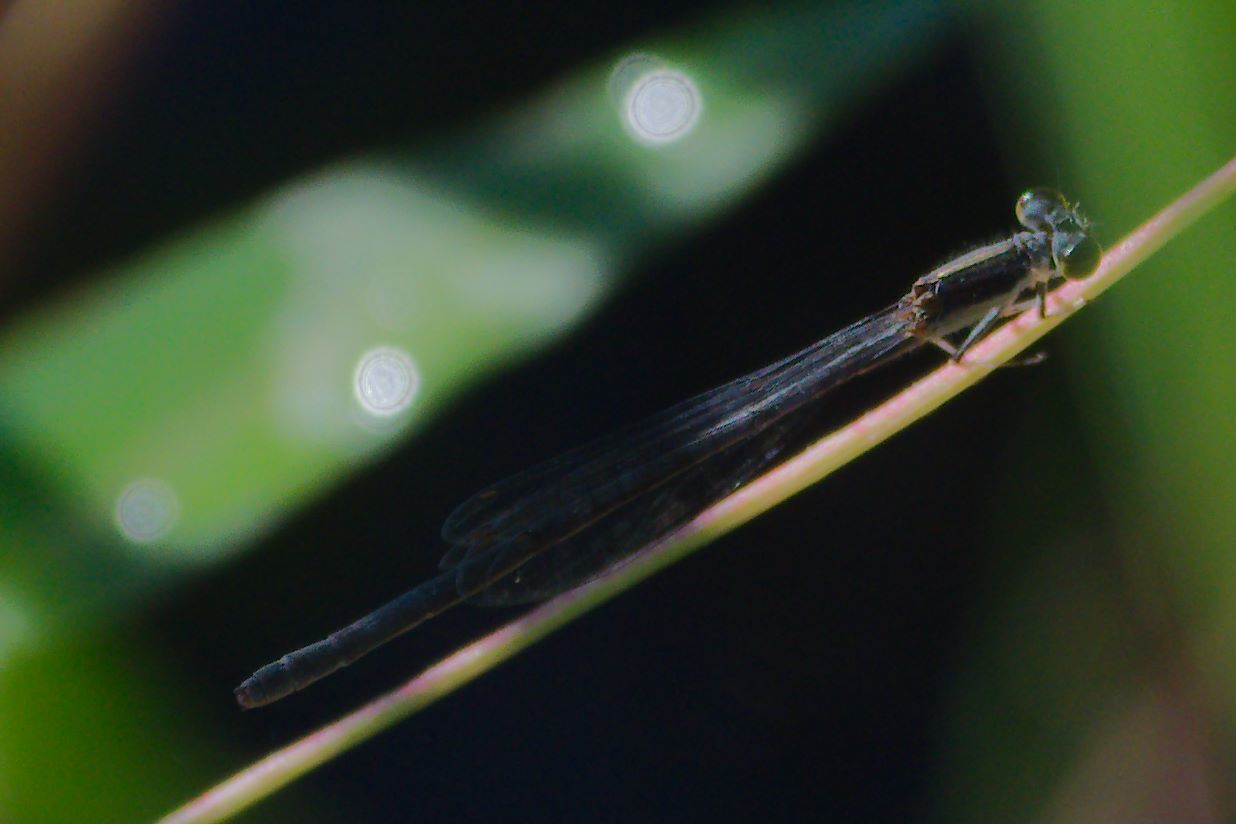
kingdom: Animalia
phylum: Arthropoda
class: Insecta
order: Odonata
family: Coenagrionidae
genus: Ischnura
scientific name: Ischnura hastata
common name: Citrine forktail
